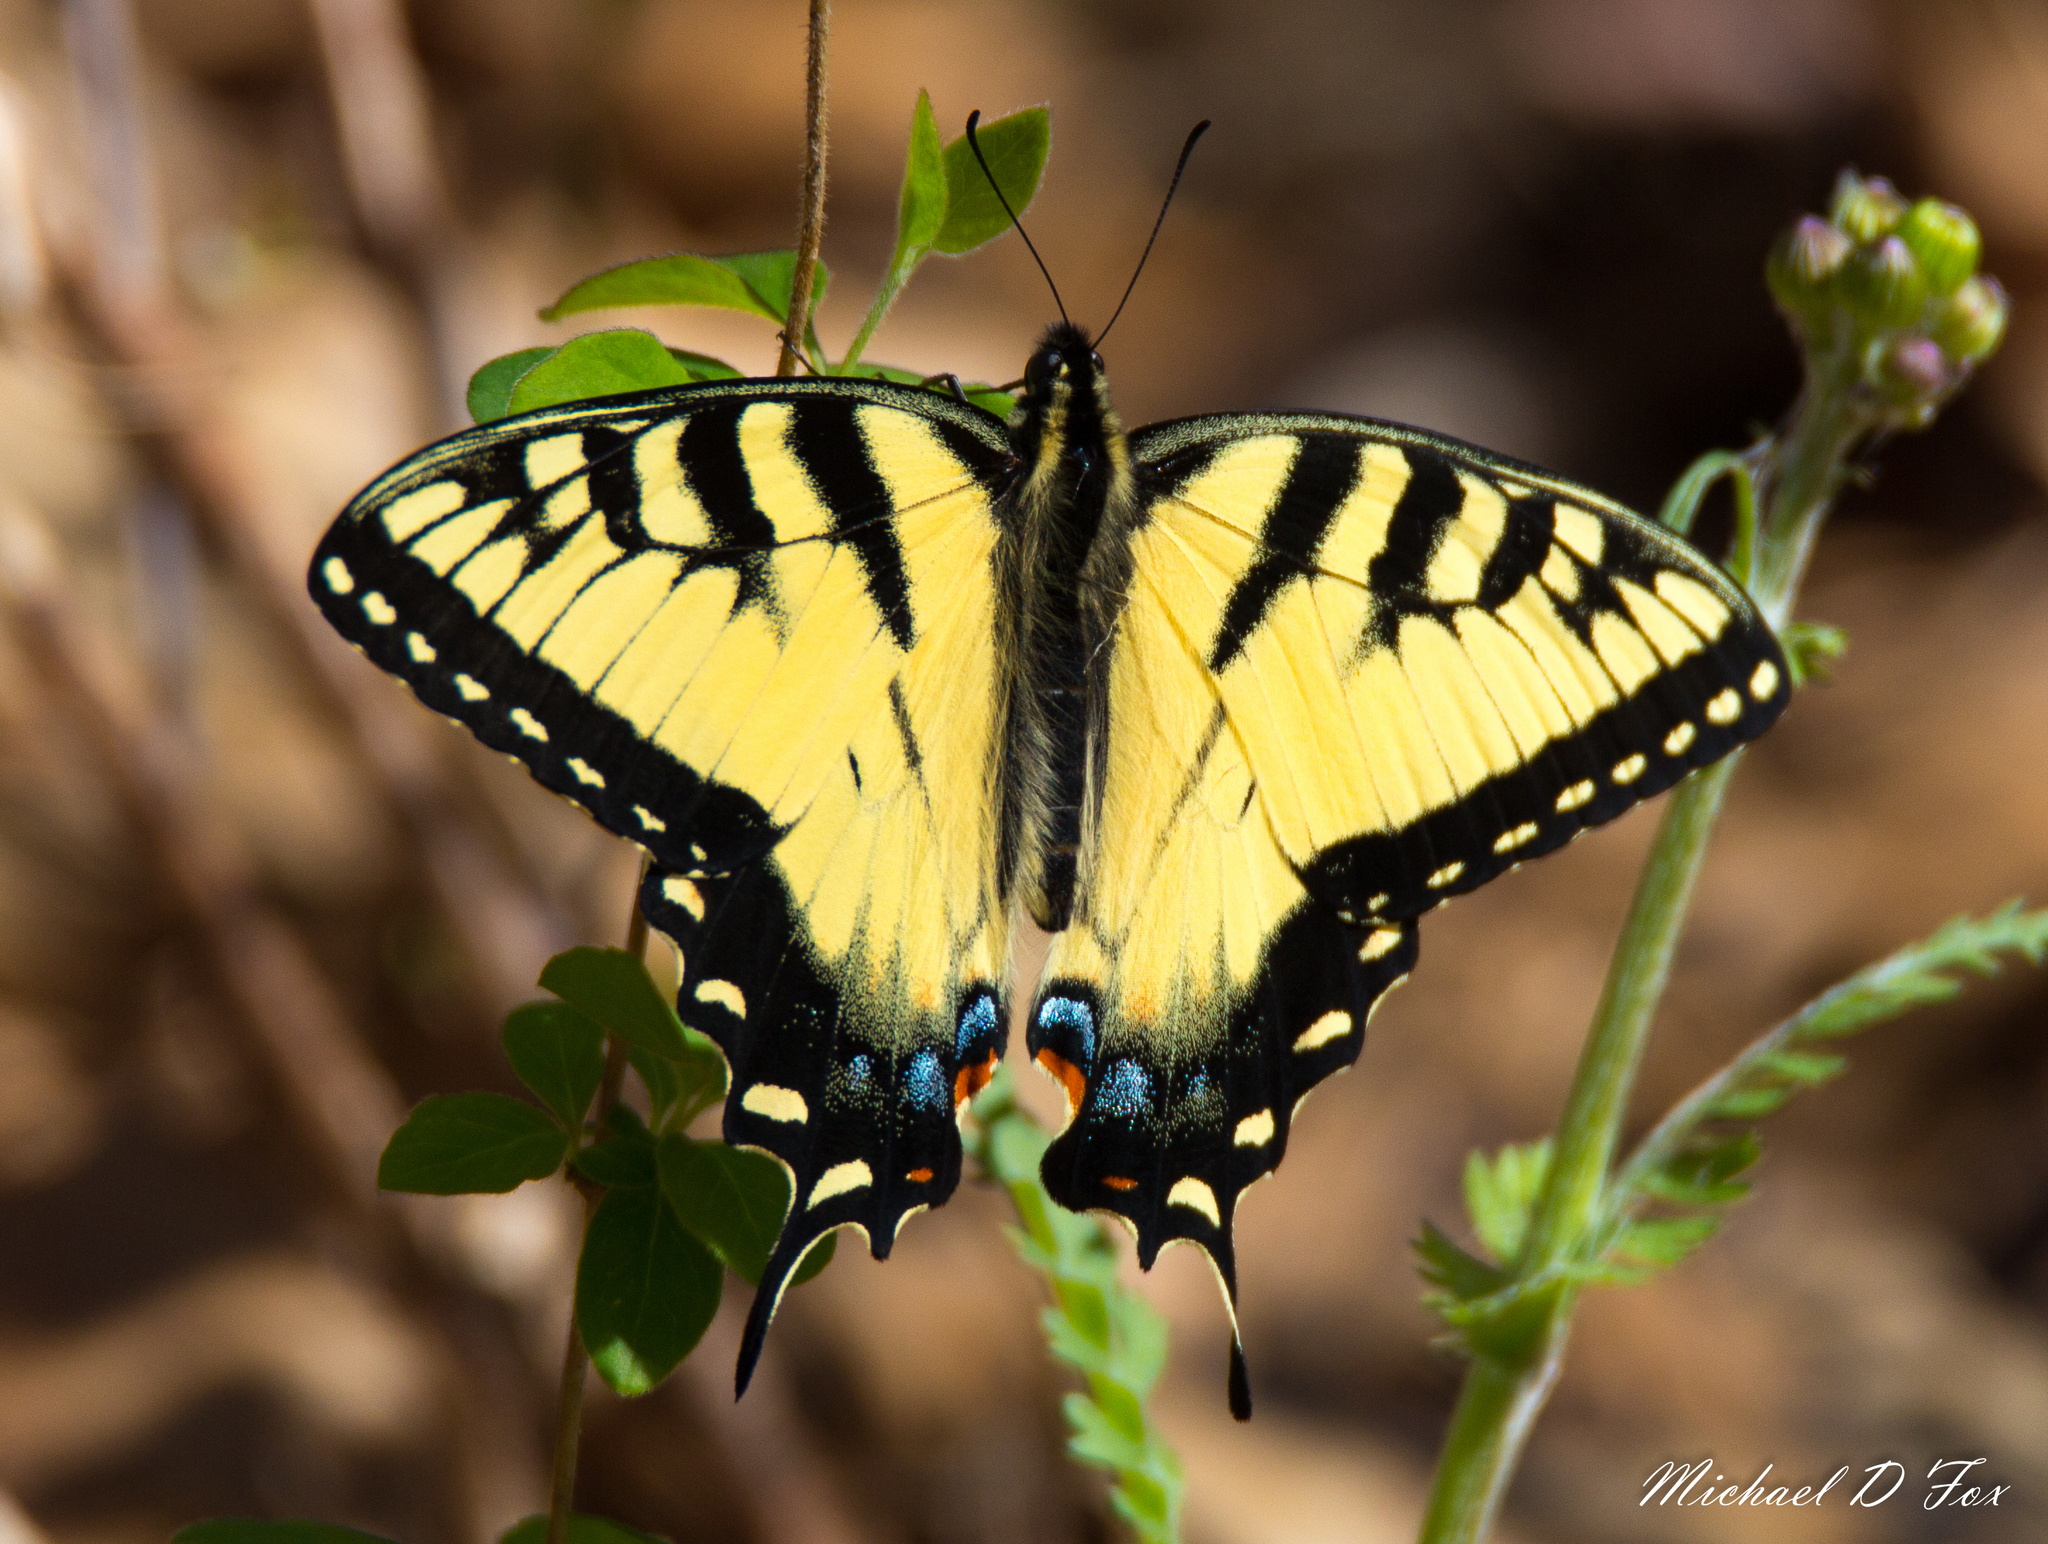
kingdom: Animalia
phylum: Arthropoda
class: Insecta
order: Lepidoptera
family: Papilionidae
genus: Papilio
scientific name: Papilio glaucus
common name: Tiger swallowtail
